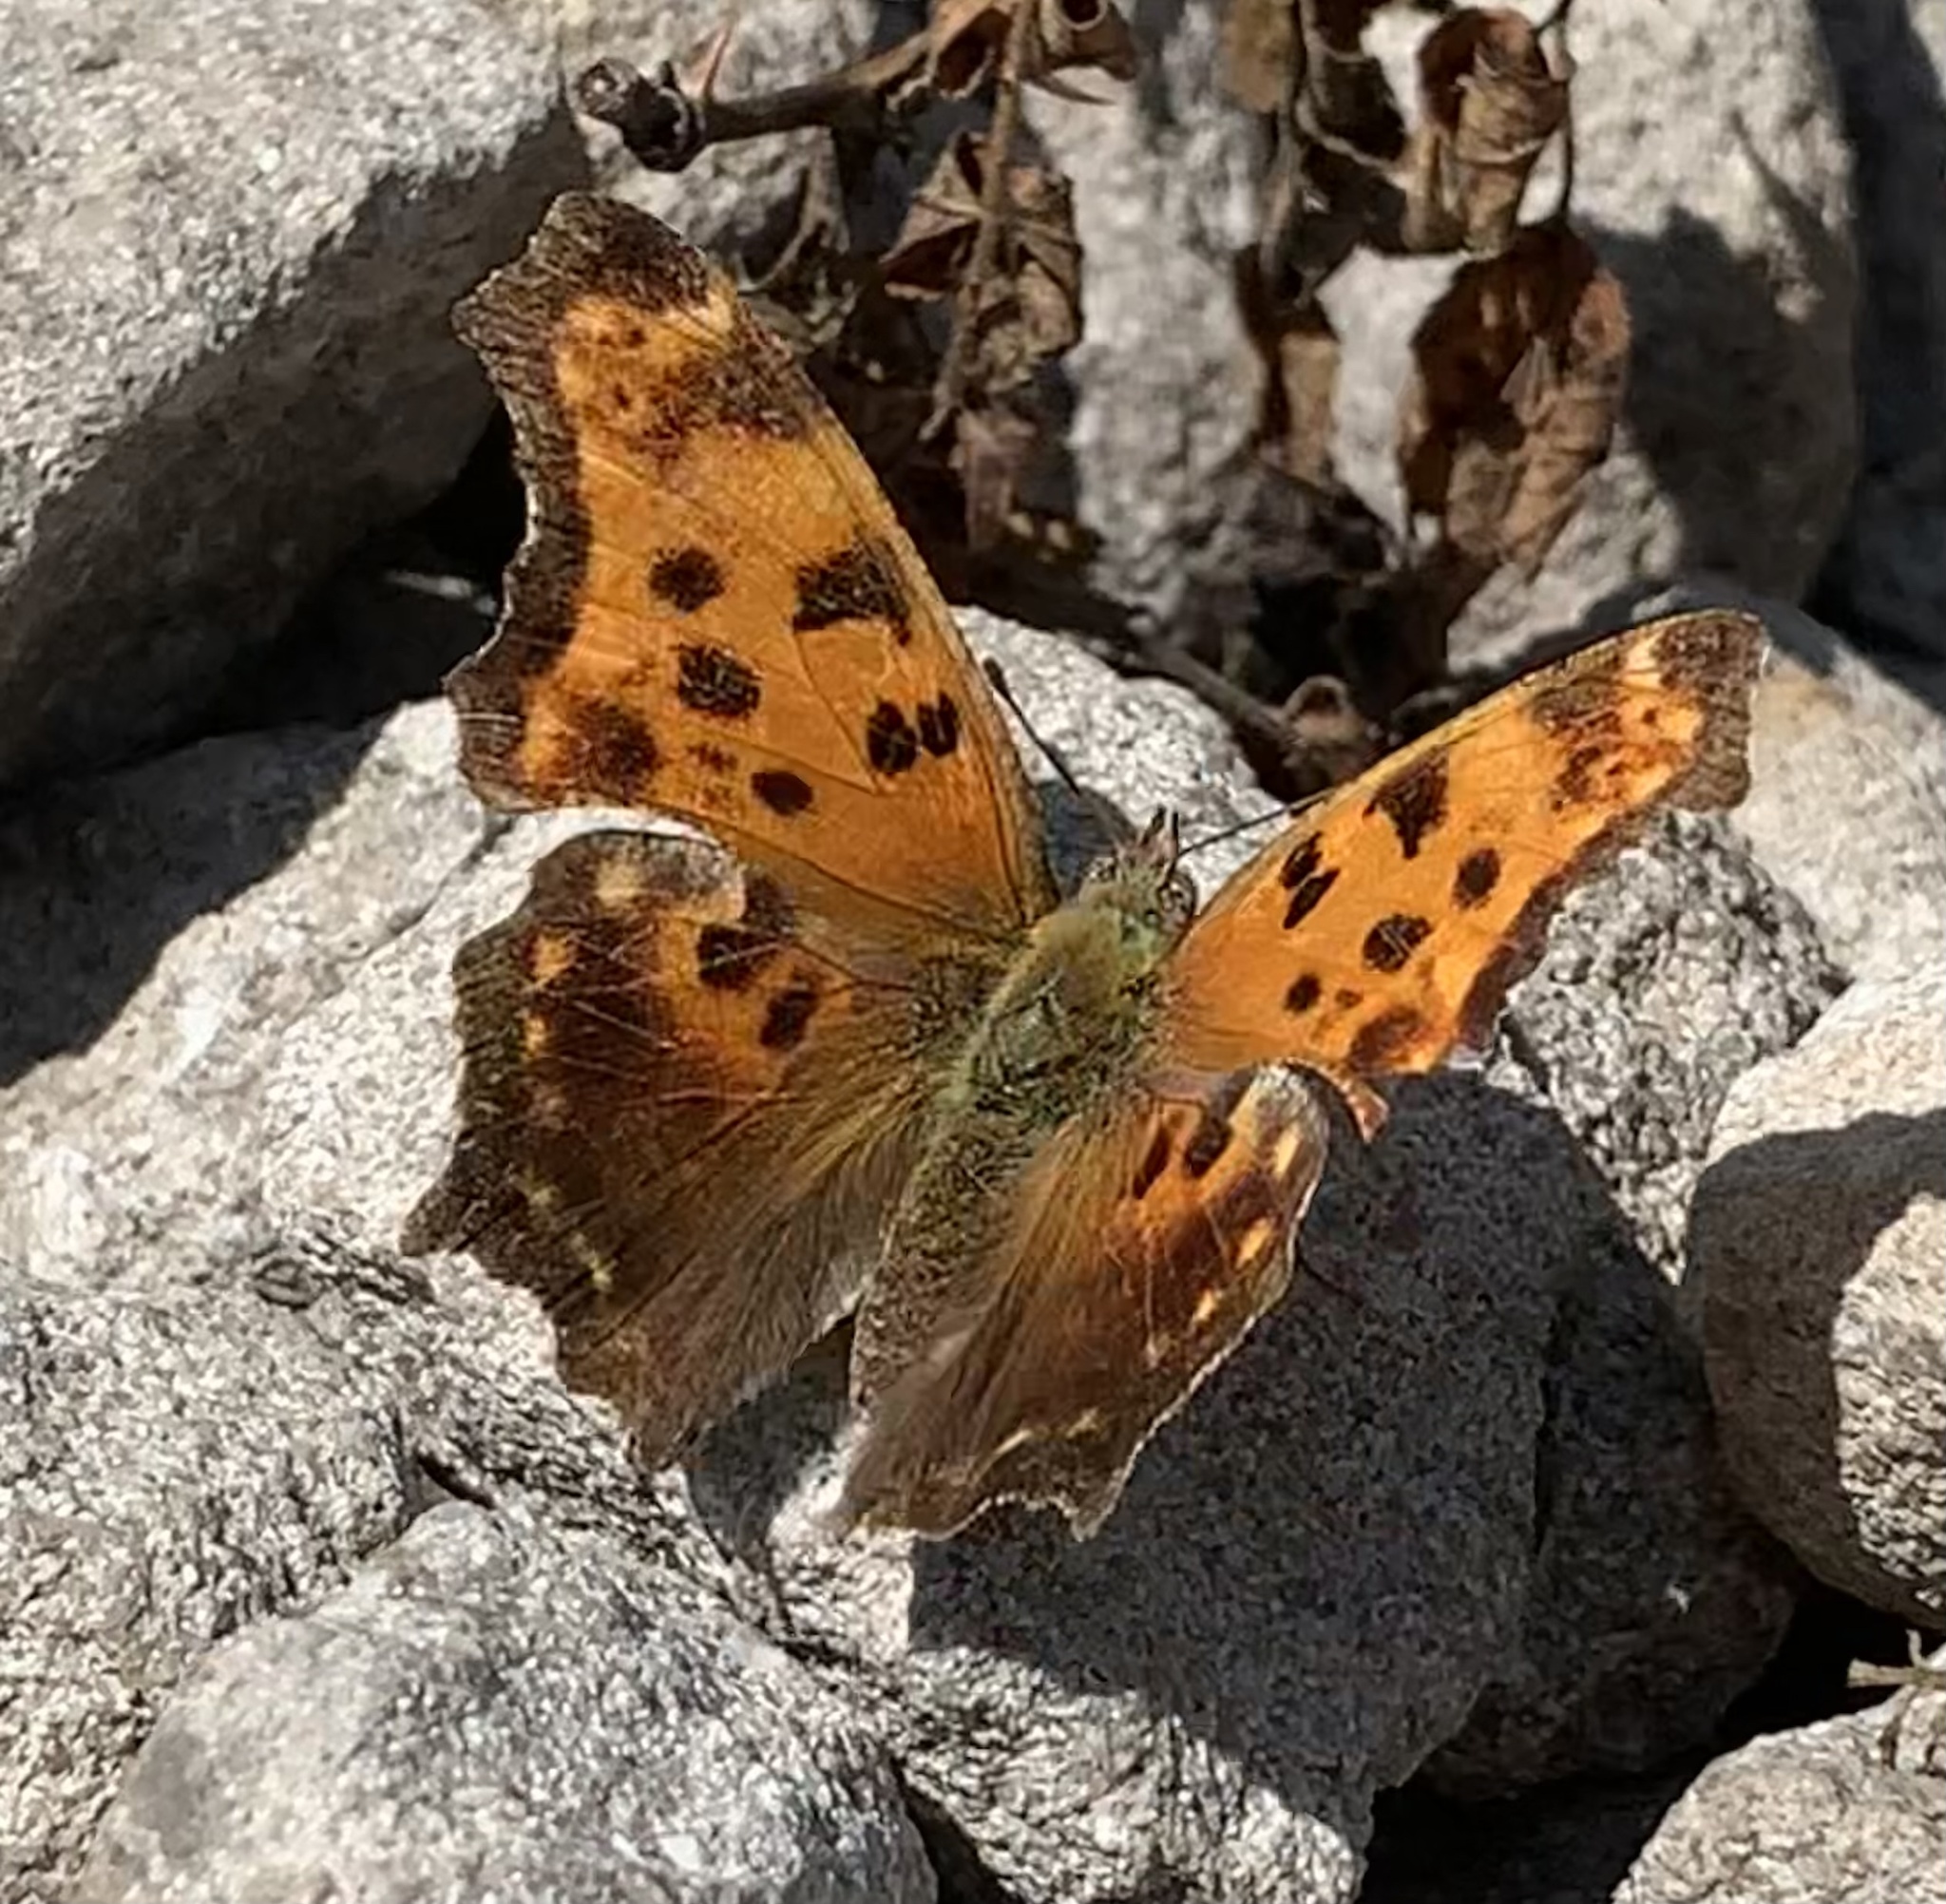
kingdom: Animalia
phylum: Arthropoda
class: Insecta
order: Lepidoptera
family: Nymphalidae
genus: Polygonia
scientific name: Polygonia comma
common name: Eastern comma
